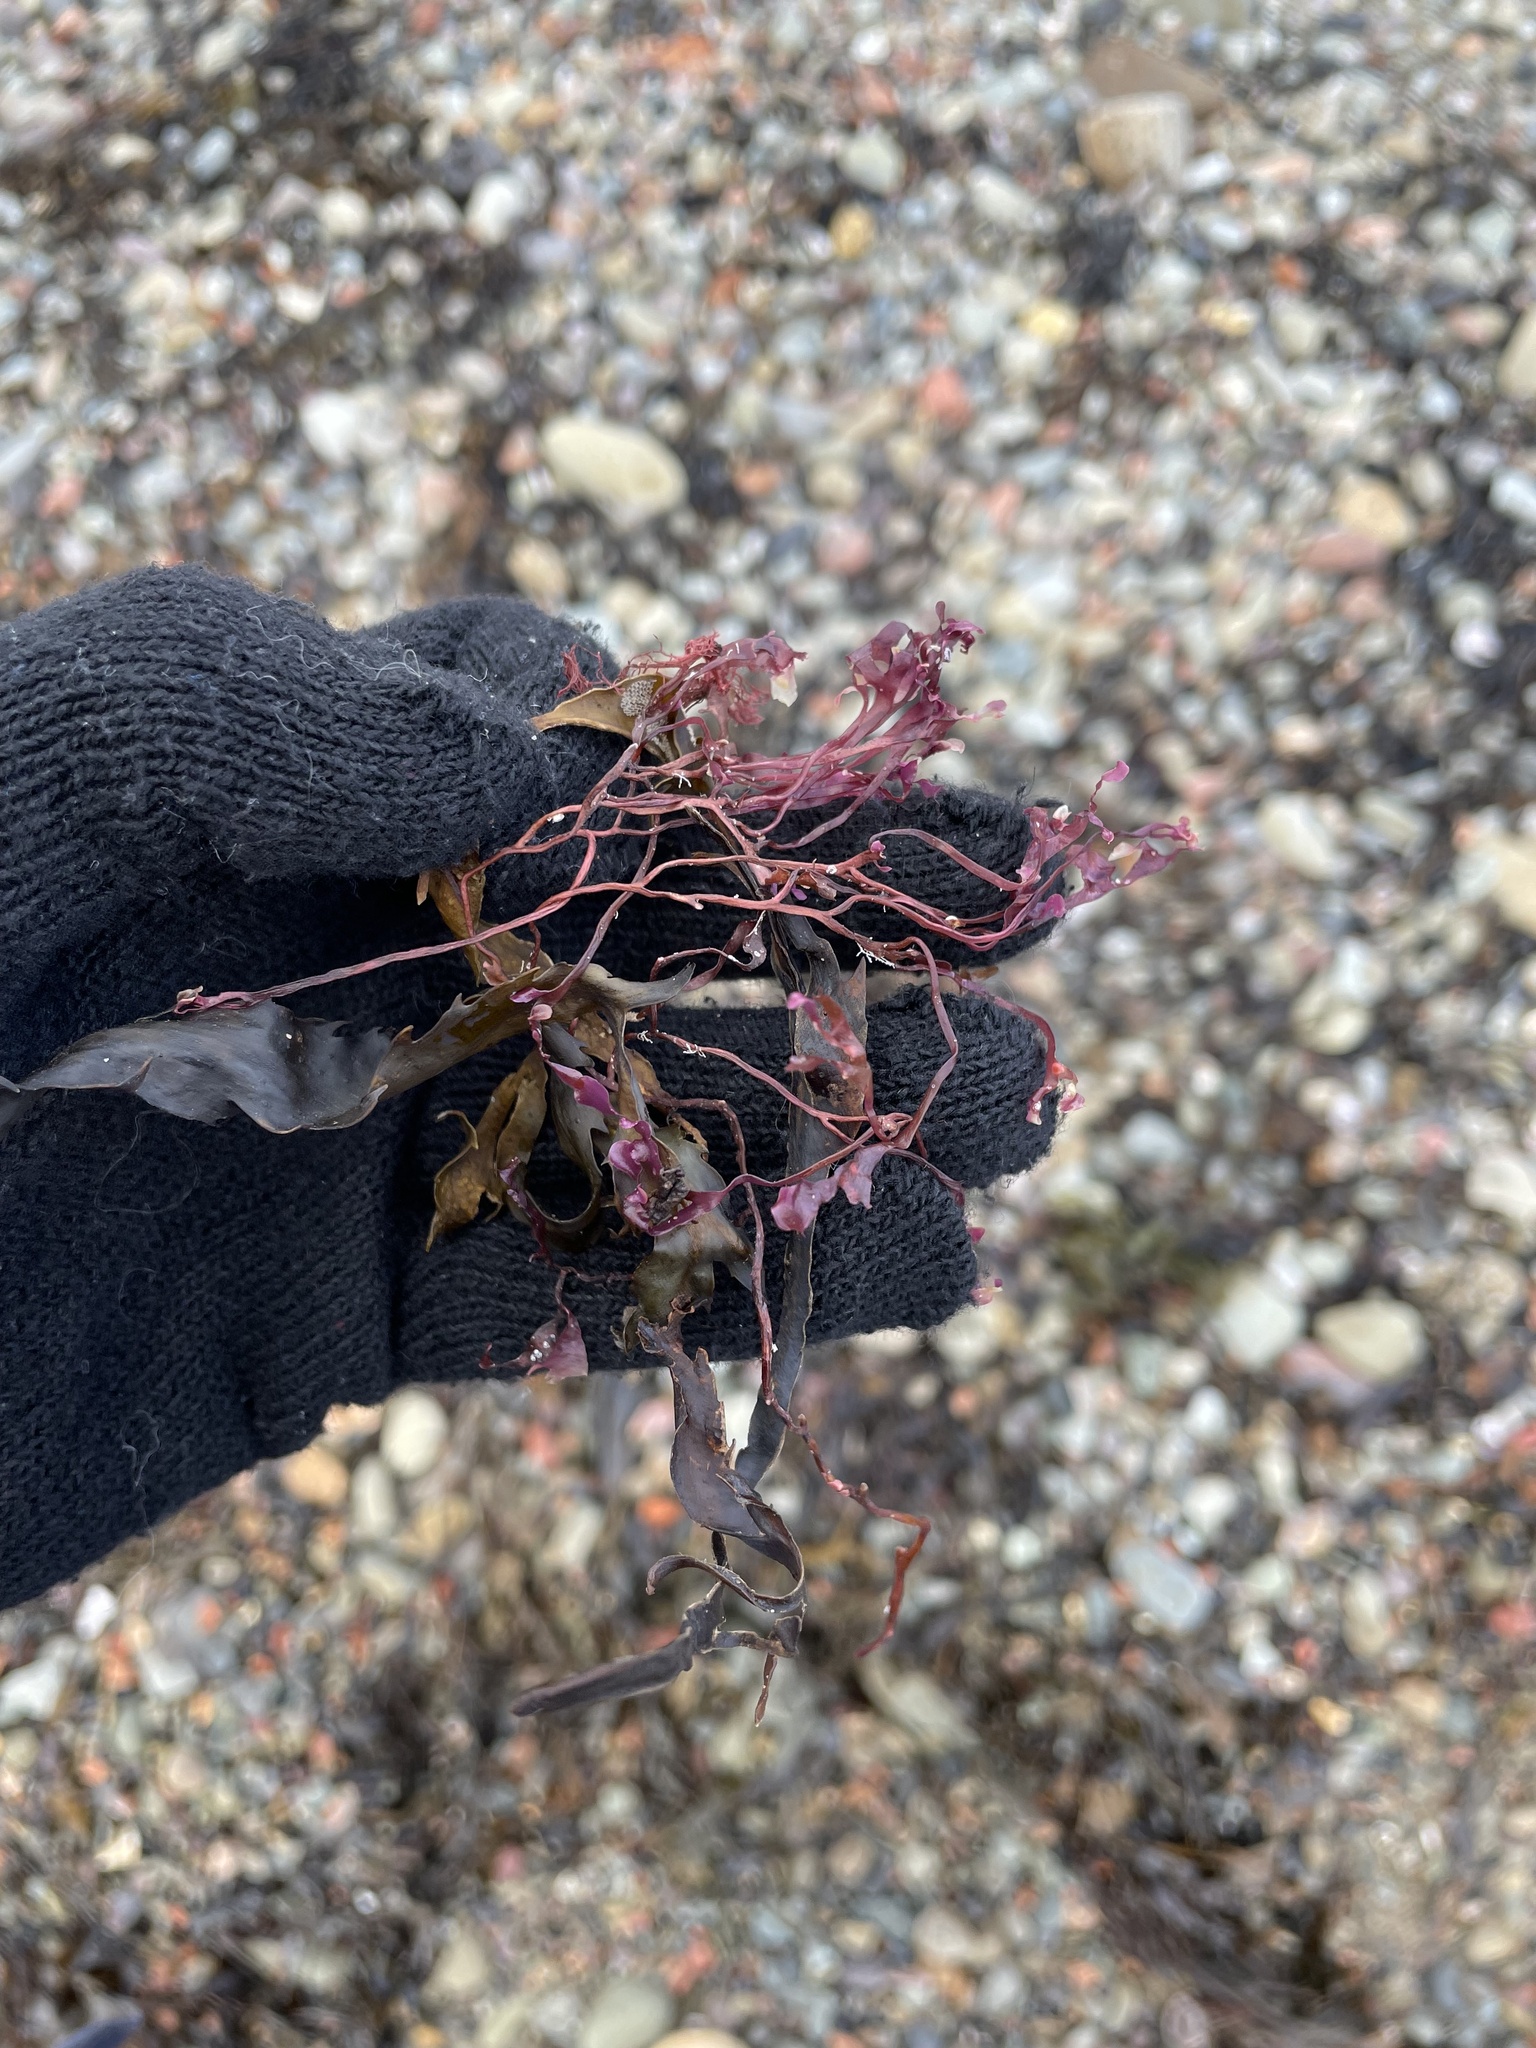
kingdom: Plantae
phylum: Rhodophyta
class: Florideophyceae
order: Gigartinales
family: Gigartinaceae
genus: Chondrus
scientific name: Chondrus crispus
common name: Carrageen
